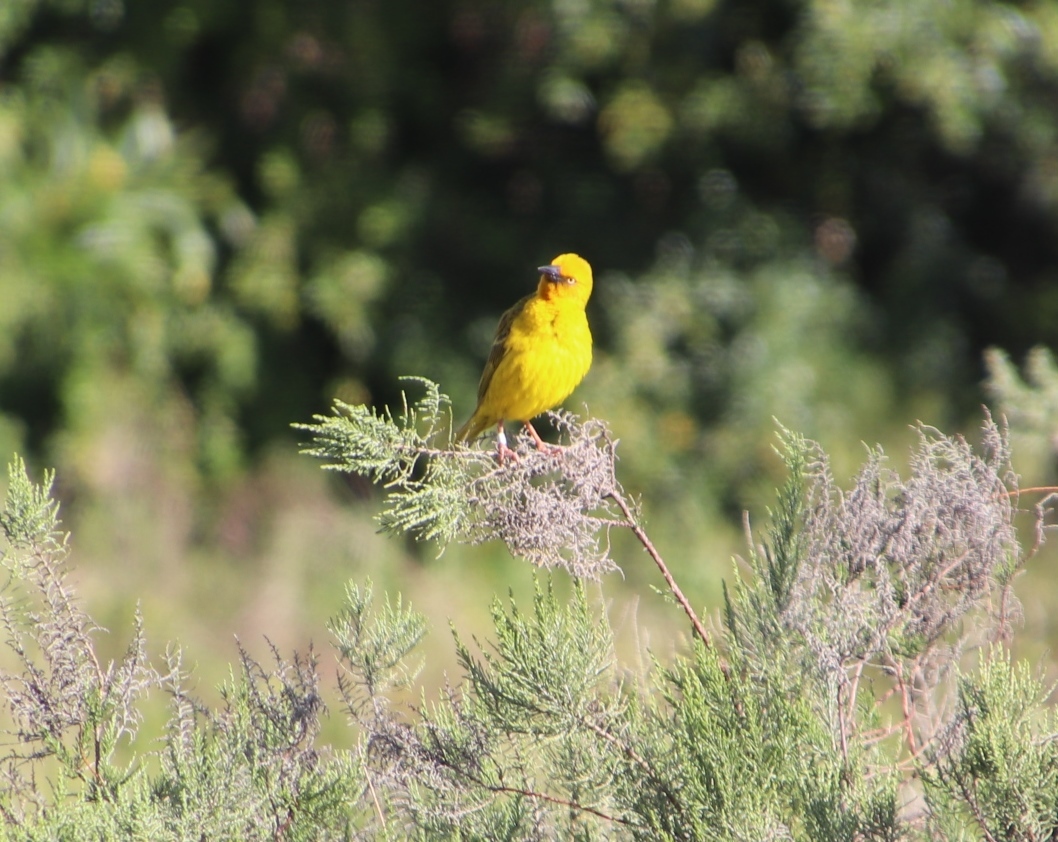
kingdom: Animalia
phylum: Chordata
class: Aves
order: Passeriformes
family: Ploceidae
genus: Ploceus
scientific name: Ploceus capensis
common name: Cape weaver
